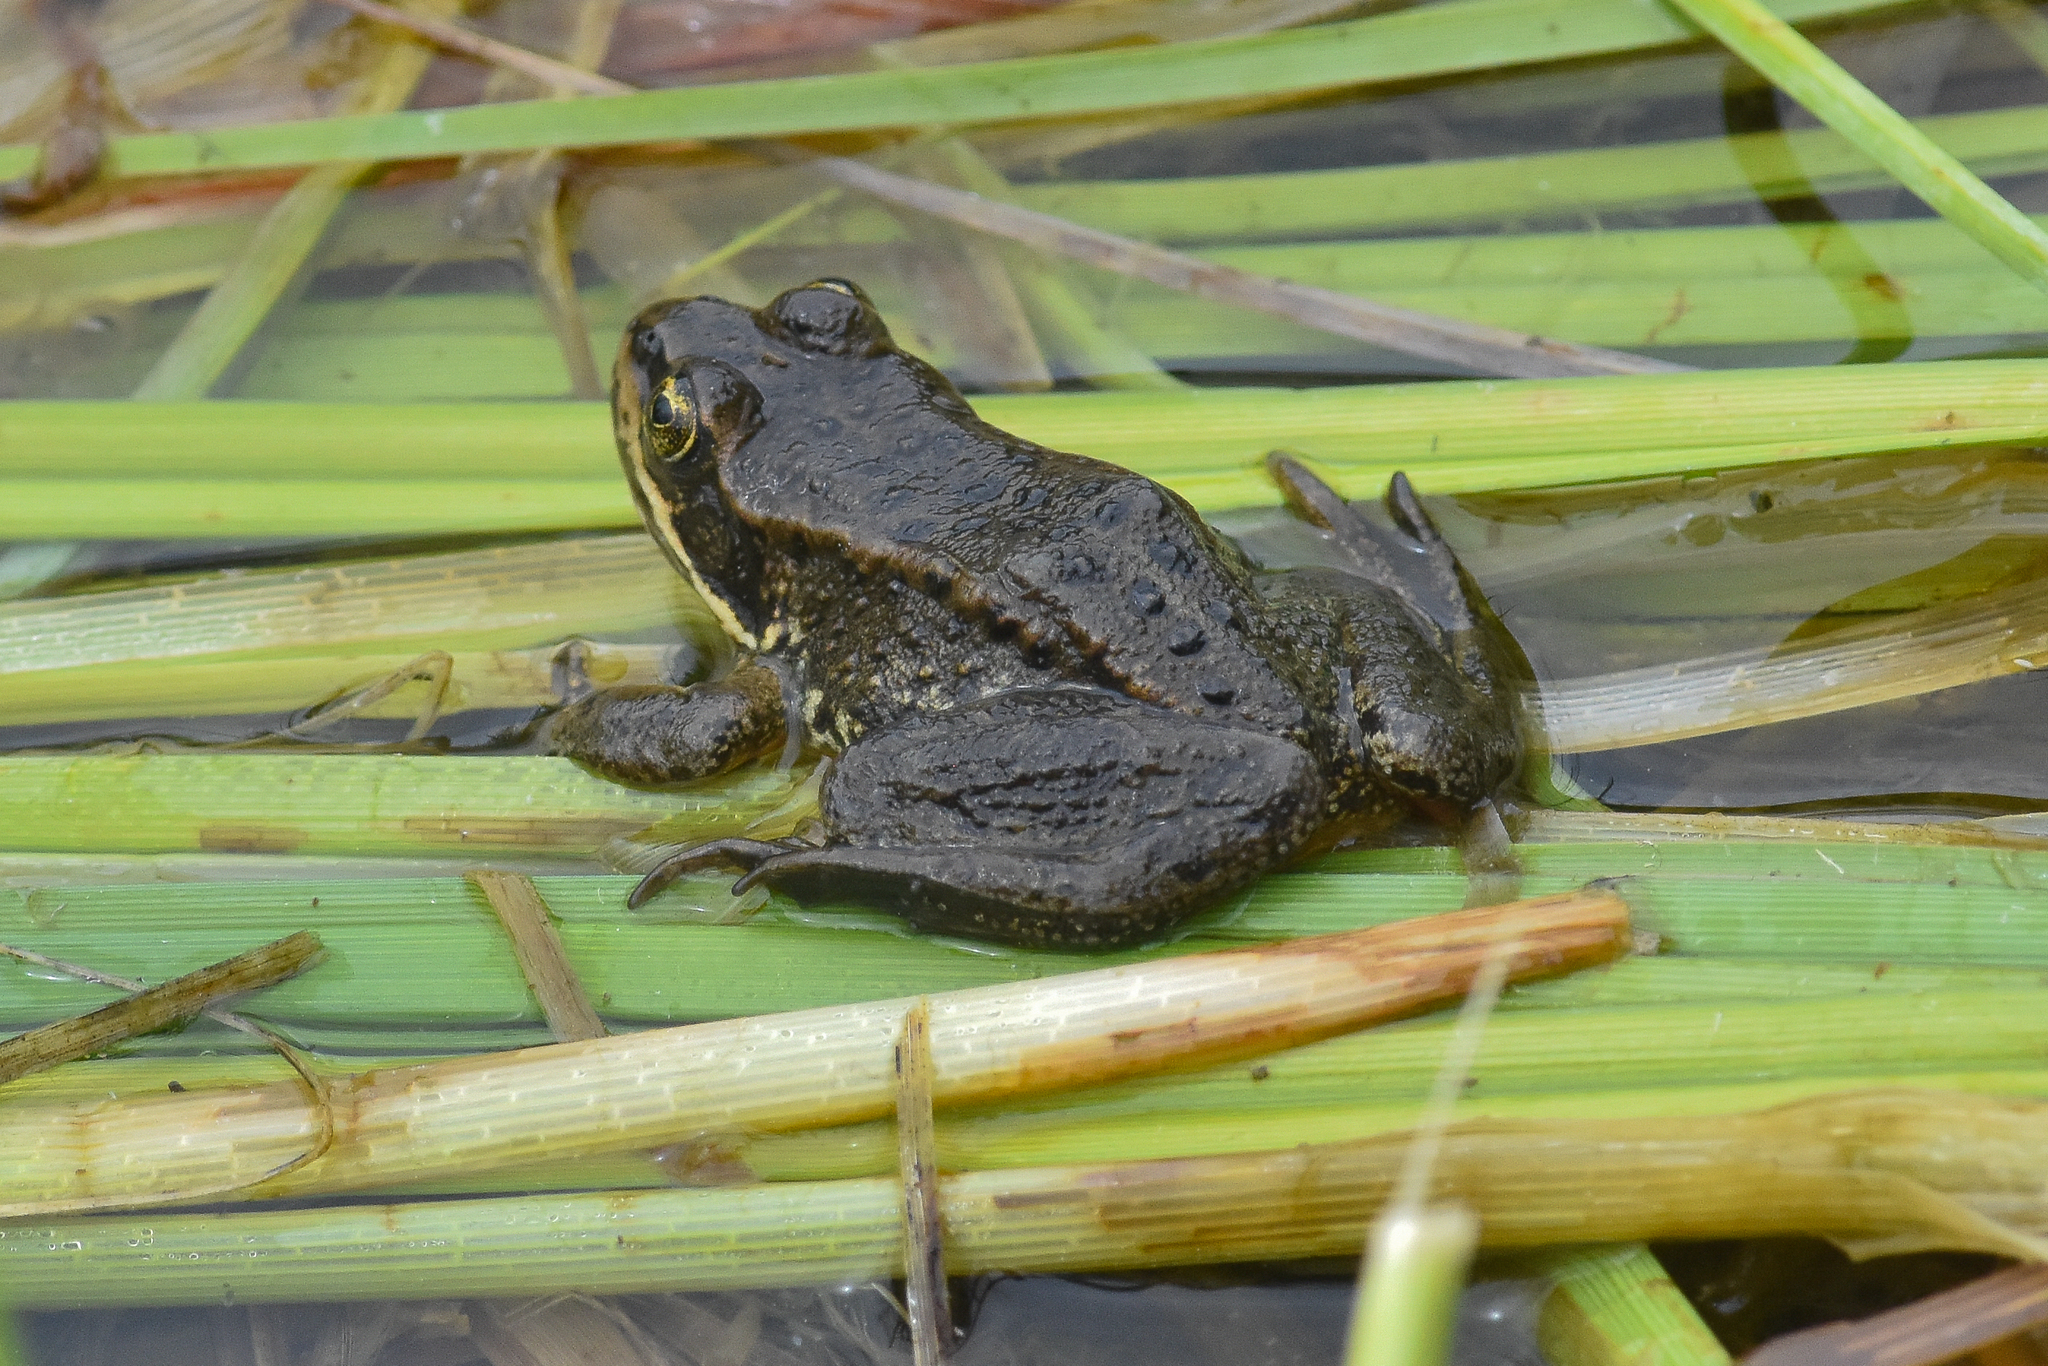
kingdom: Animalia
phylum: Chordata
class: Amphibia
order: Anura
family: Ranidae
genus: Rana
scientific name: Rana luteiventris
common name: Columbia spotted frog
